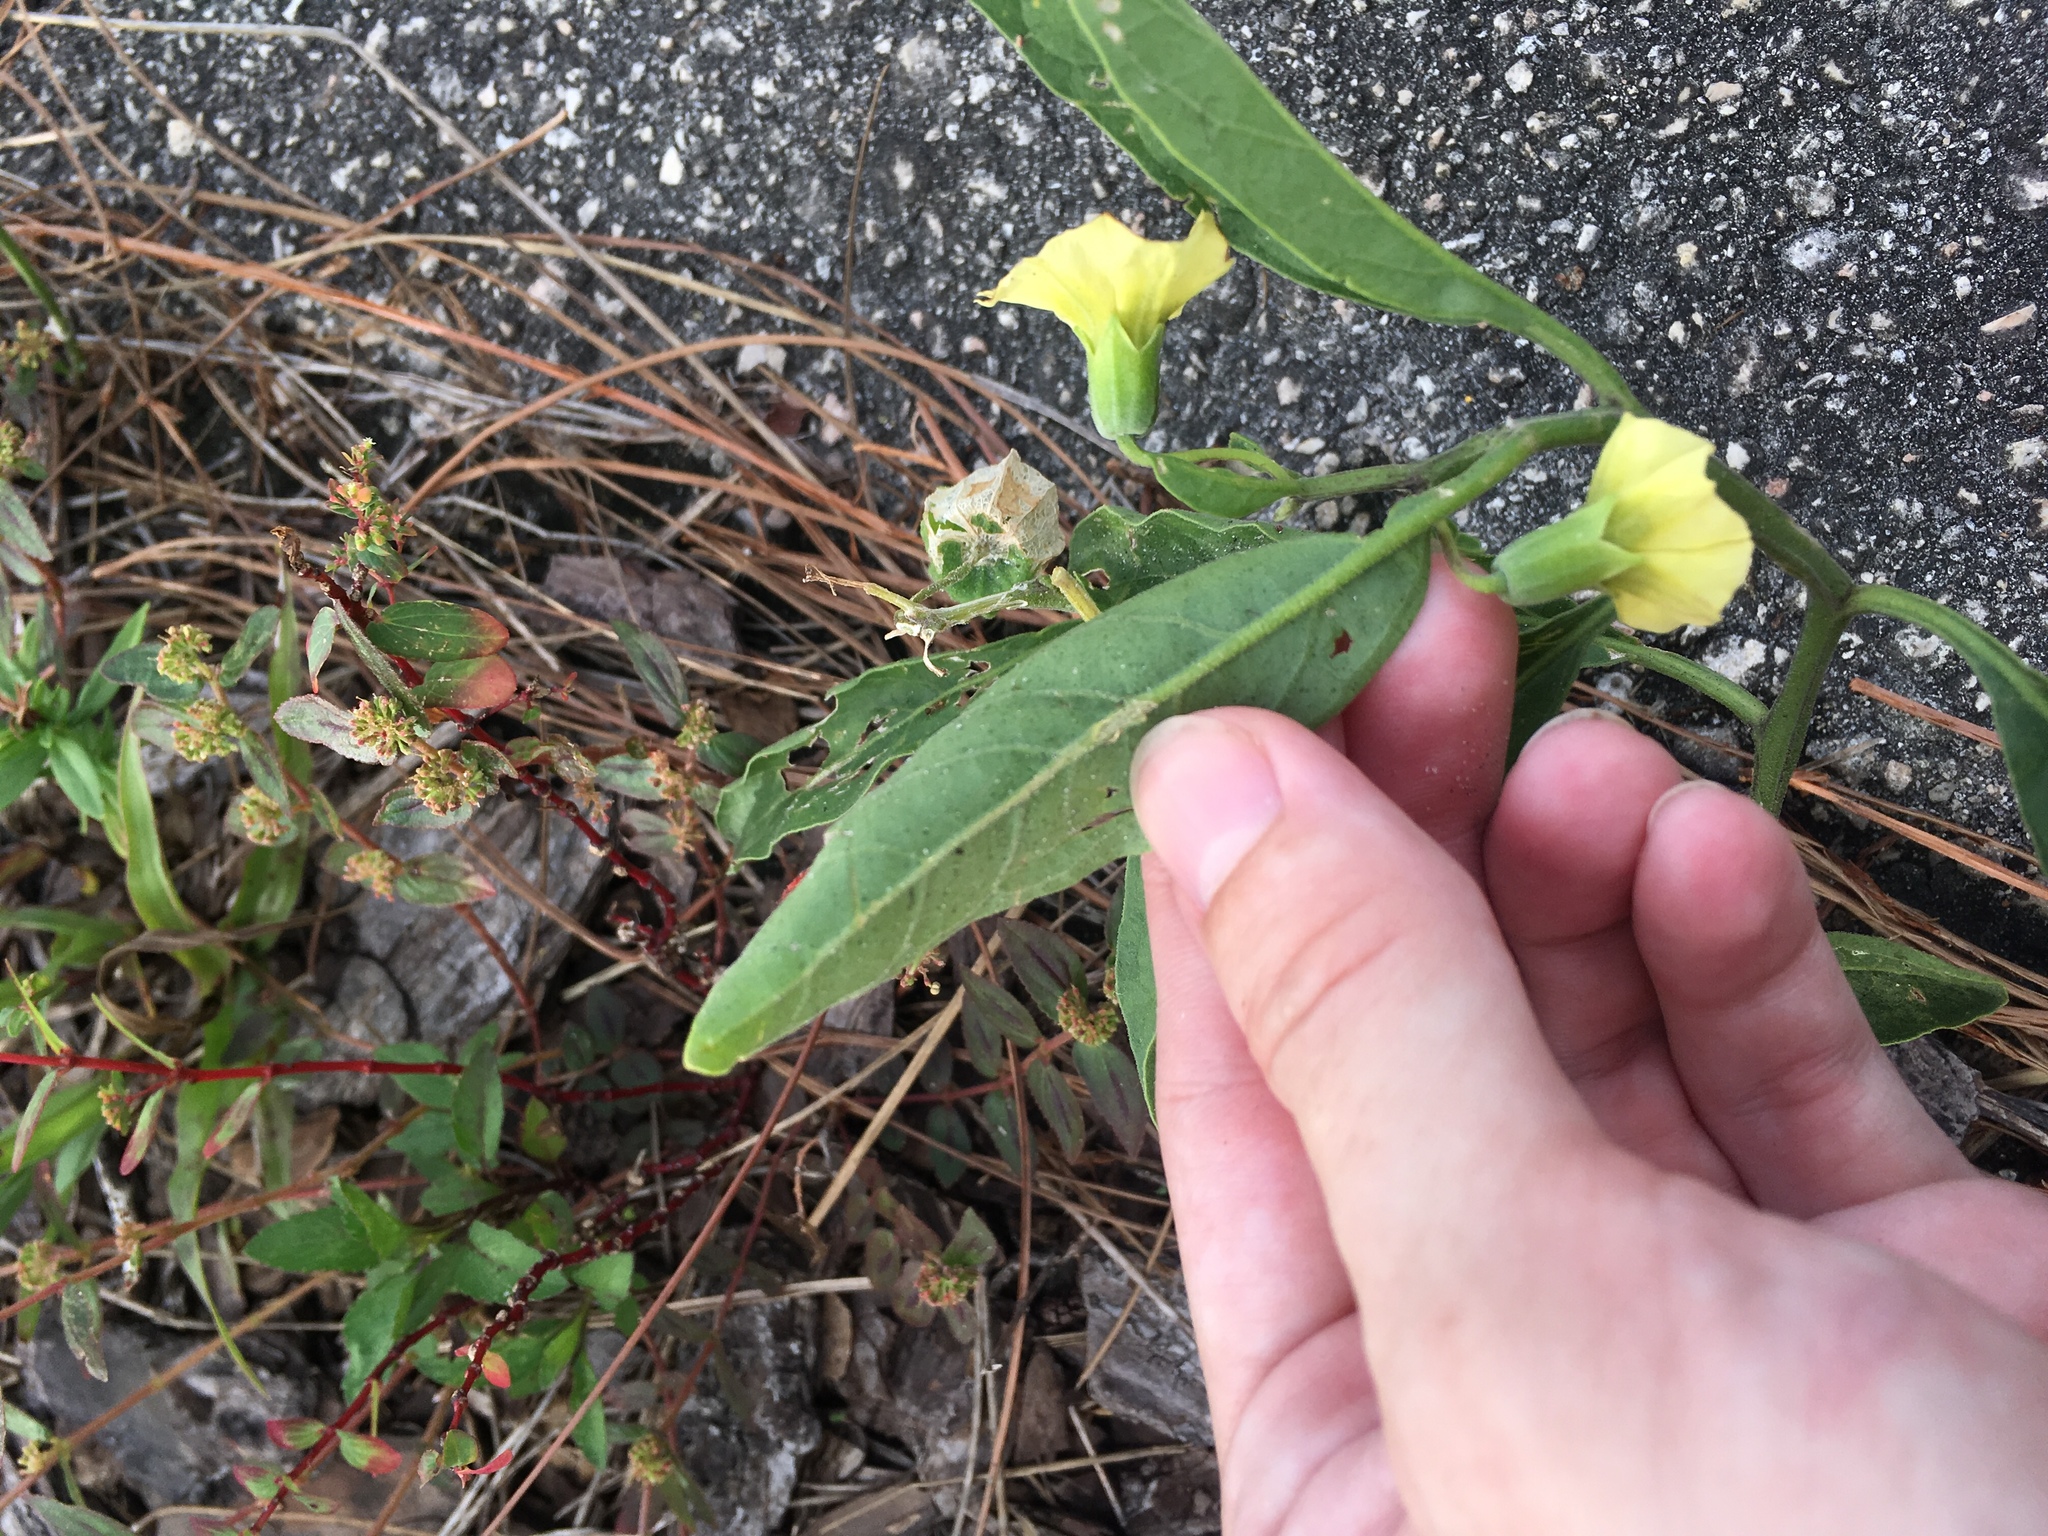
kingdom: Plantae
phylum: Tracheophyta
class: Magnoliopsida
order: Solanales
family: Solanaceae
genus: Physalis
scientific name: Physalis walteri
